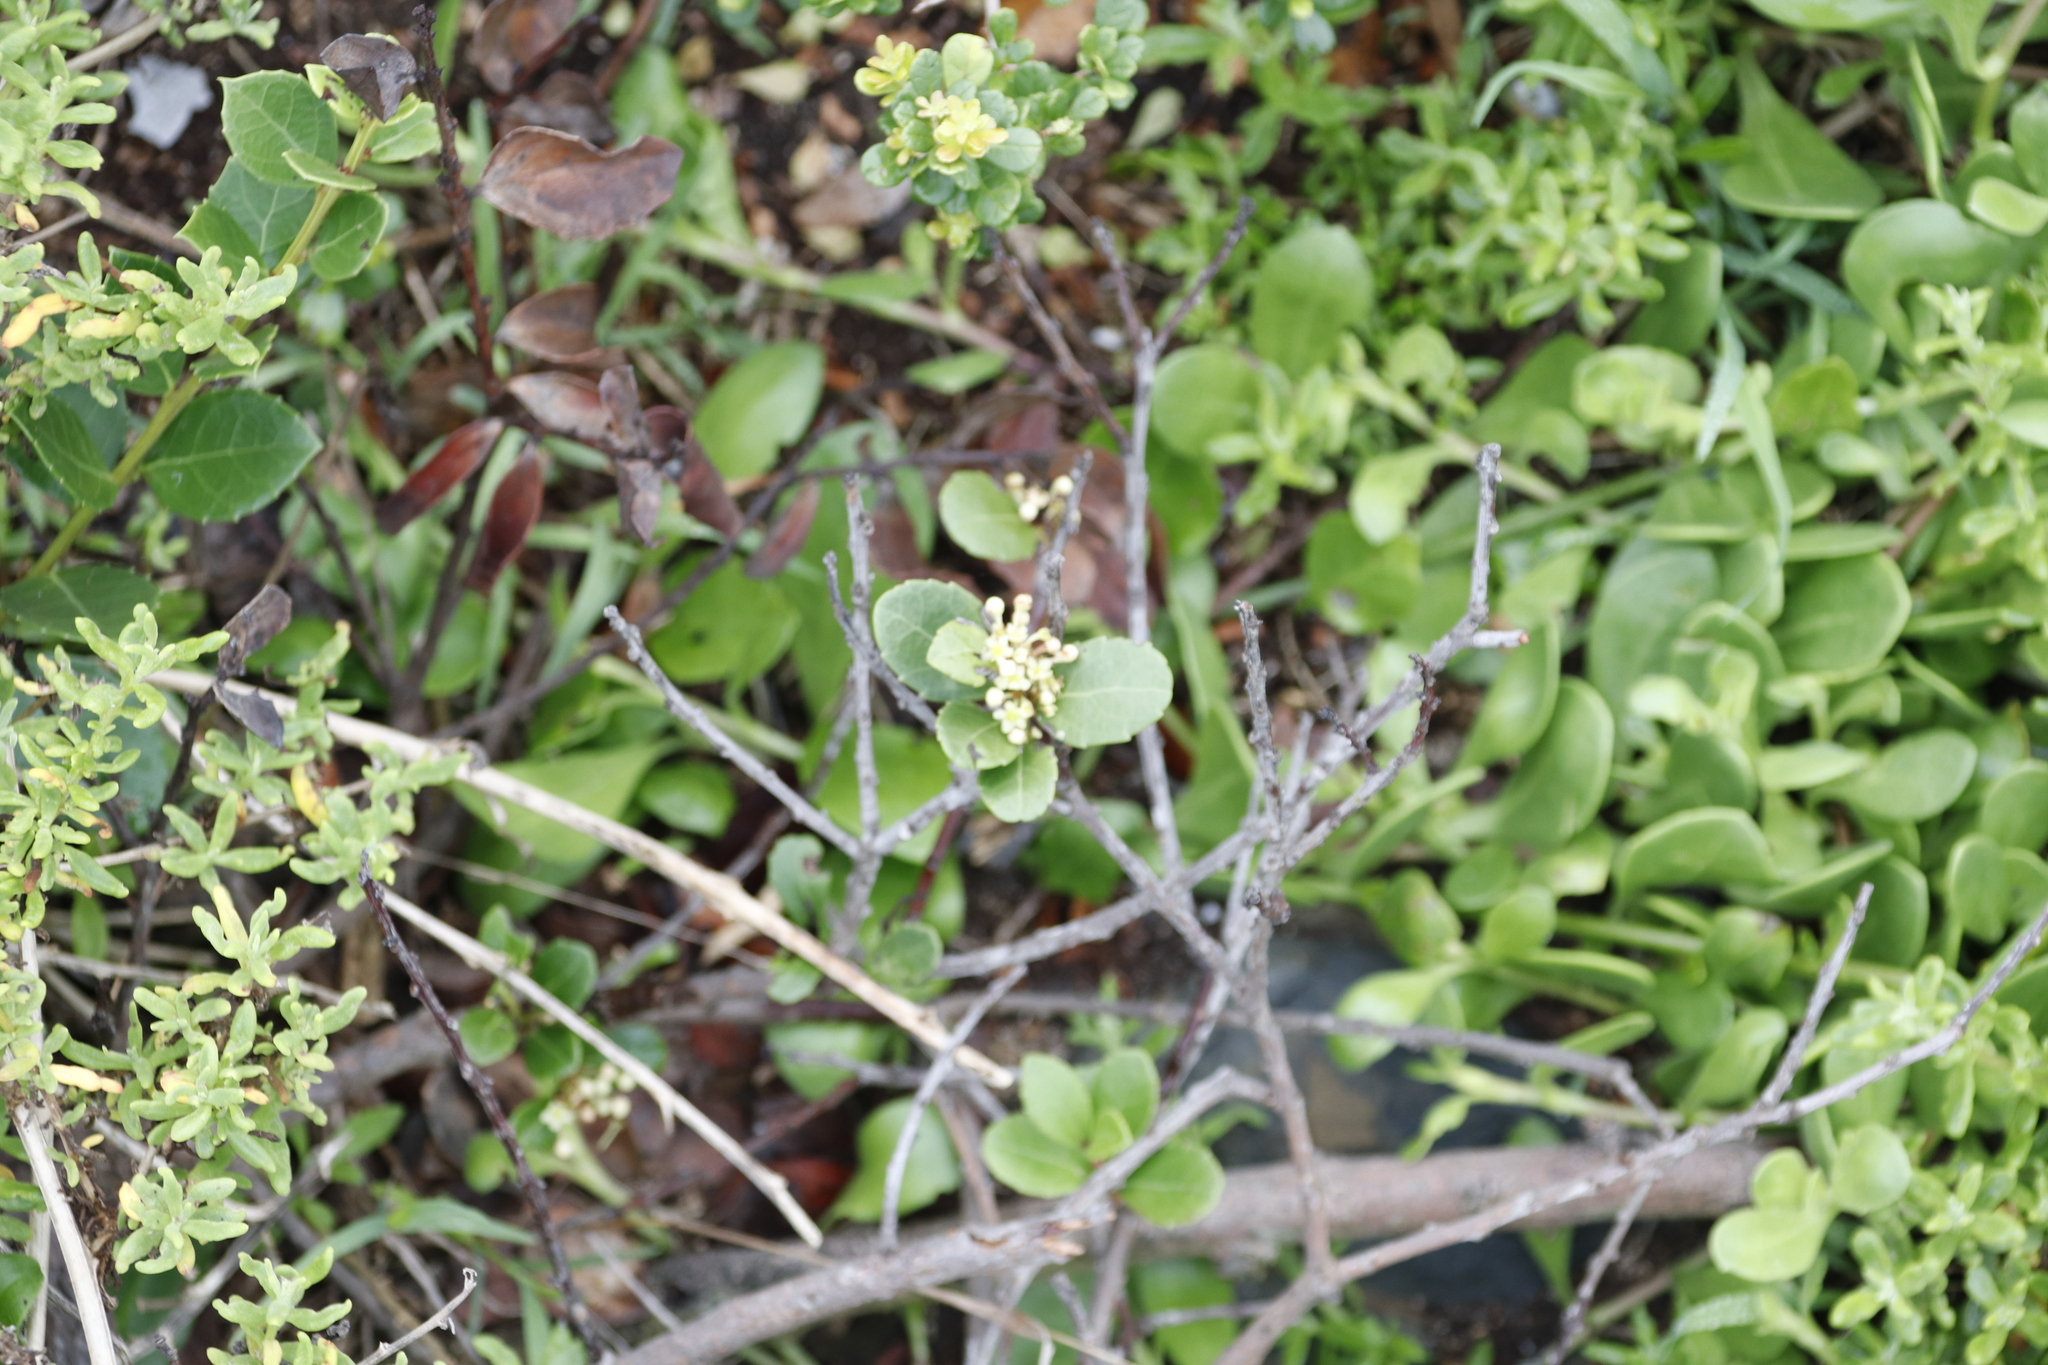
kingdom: Plantae
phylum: Tracheophyta
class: Magnoliopsida
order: Celastrales
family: Celastraceae
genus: Gymnosporia
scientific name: Gymnosporia procumbens
